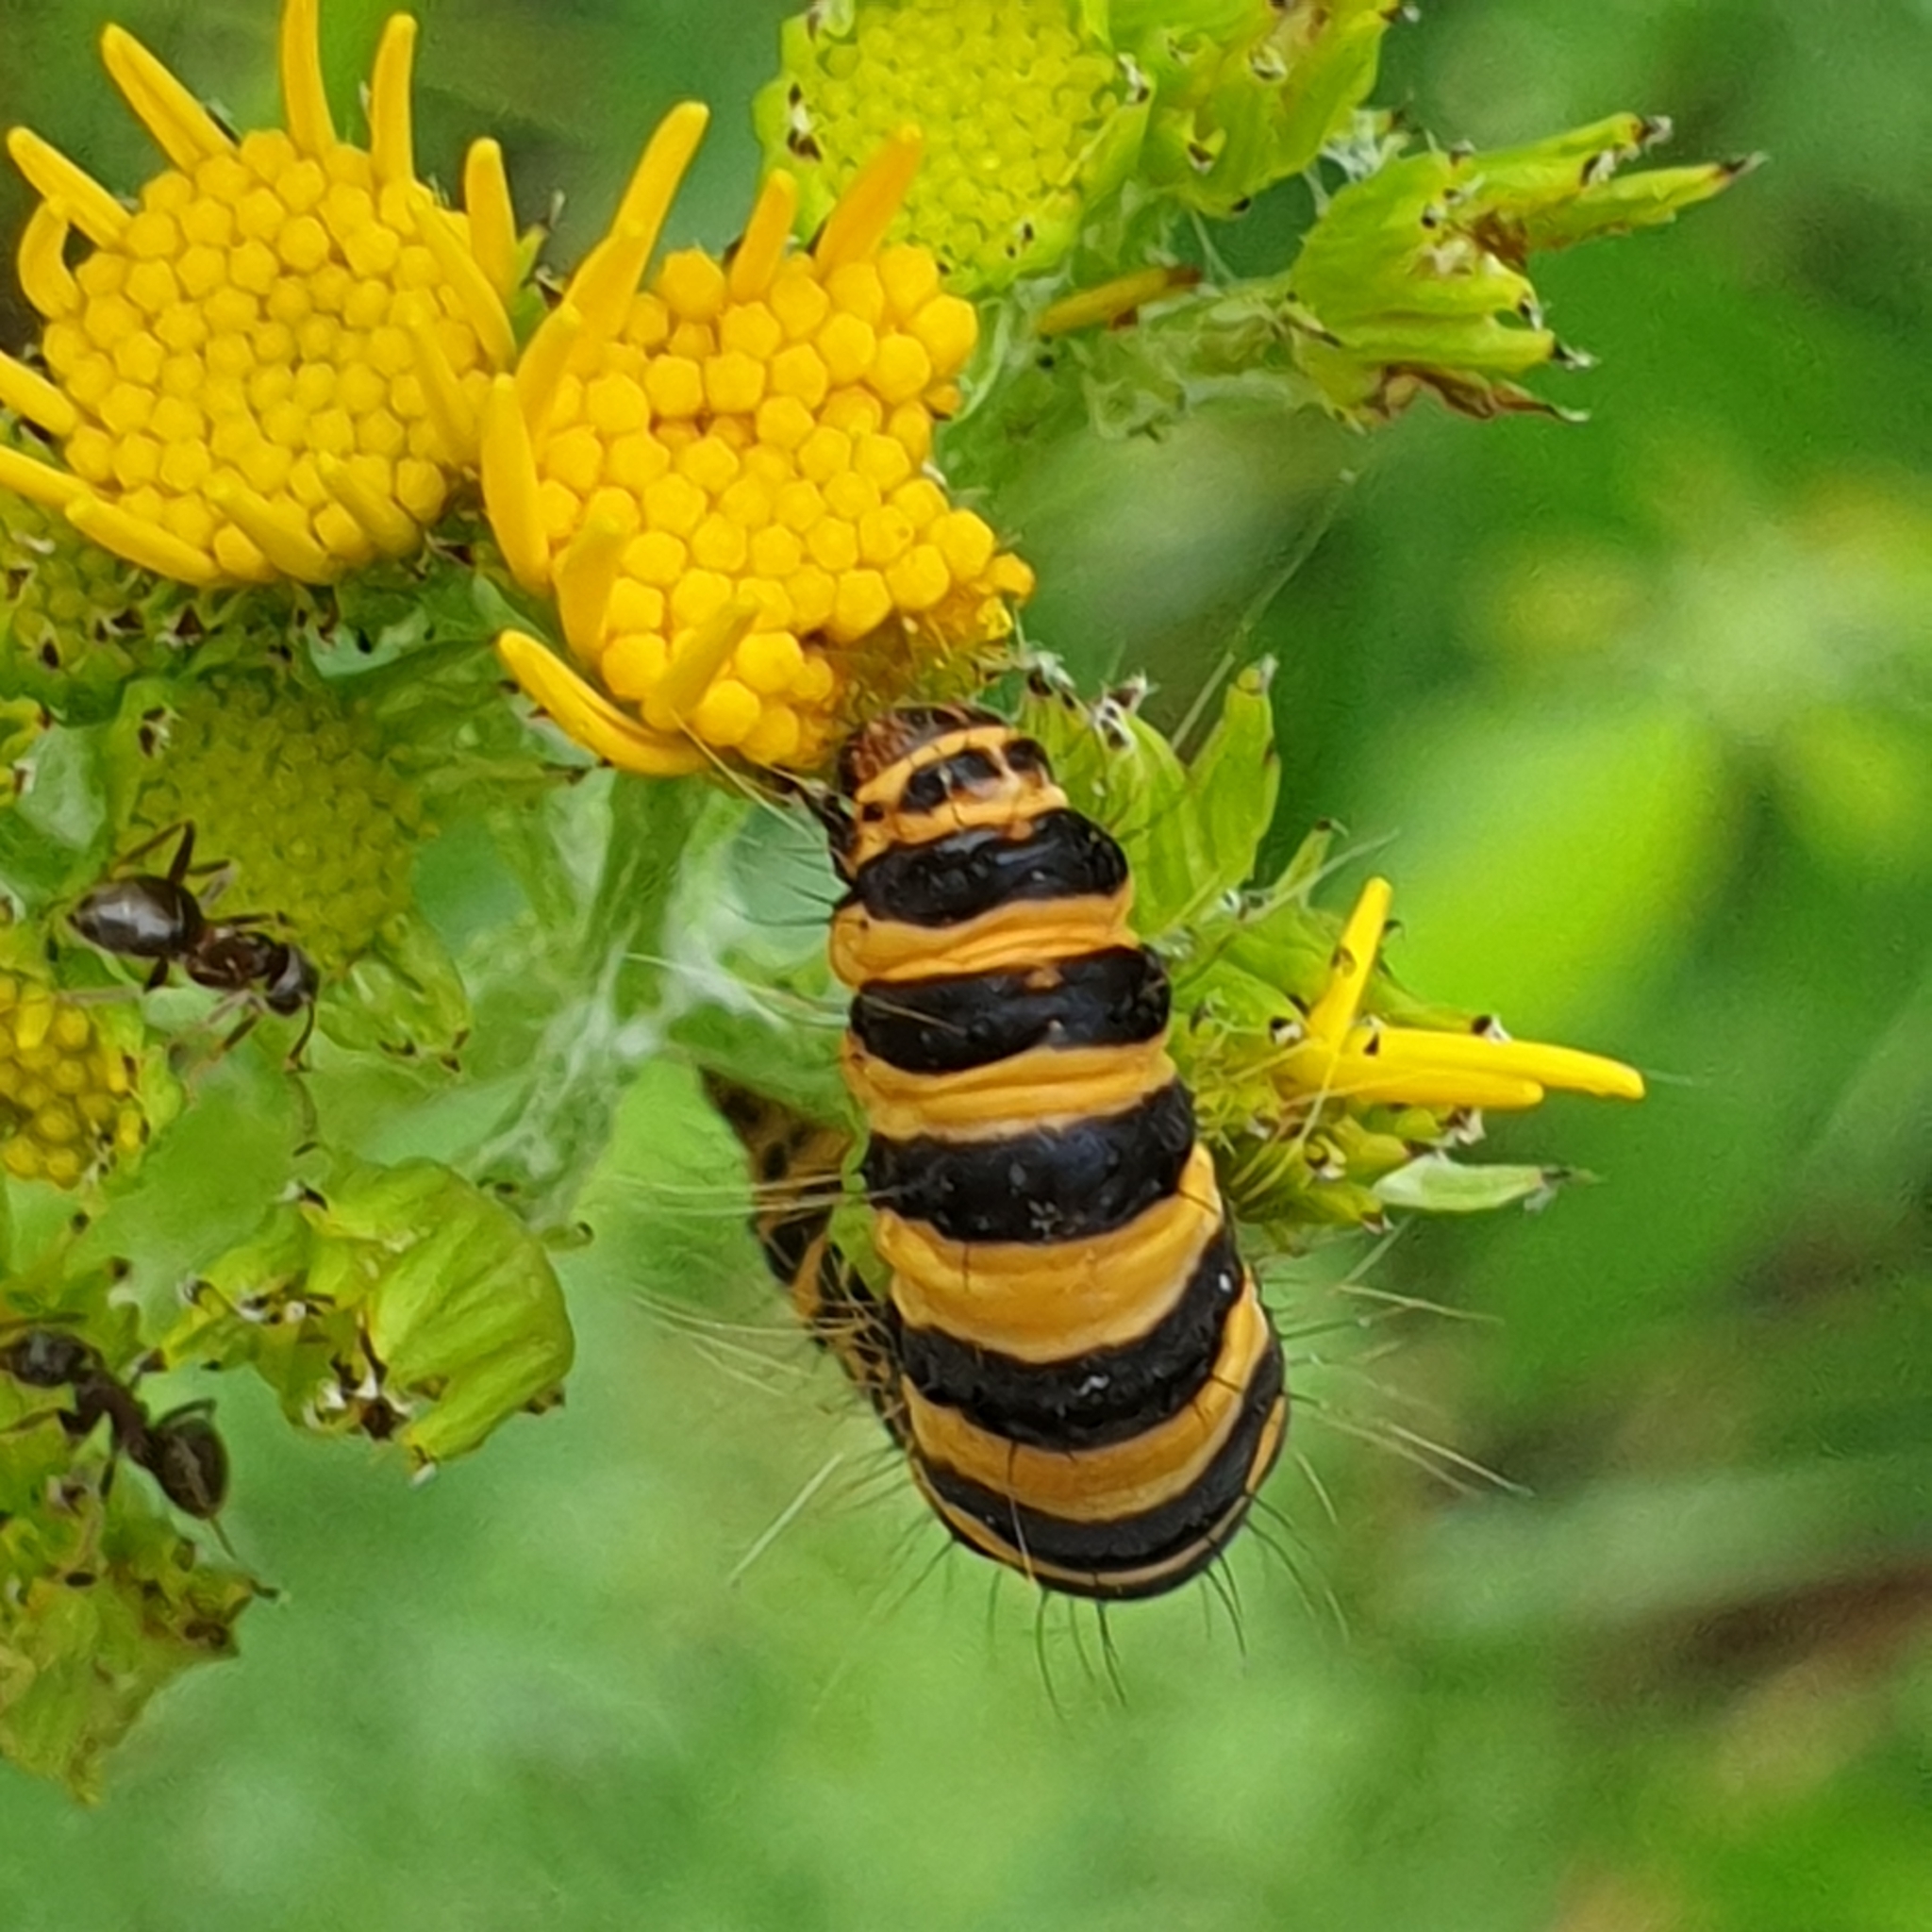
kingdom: Animalia
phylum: Arthropoda
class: Insecta
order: Lepidoptera
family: Erebidae
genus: Tyria
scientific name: Tyria jacobaeae
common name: Cinnabar
